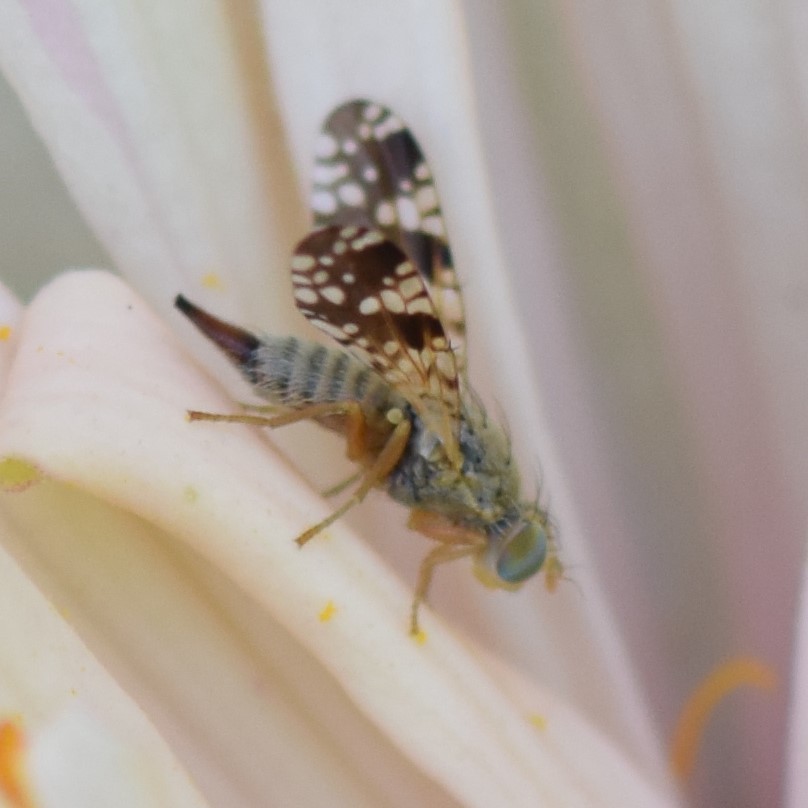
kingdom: Animalia
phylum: Arthropoda
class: Insecta
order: Diptera
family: Tephritidae
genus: Neotephritis
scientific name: Neotephritis finalis
